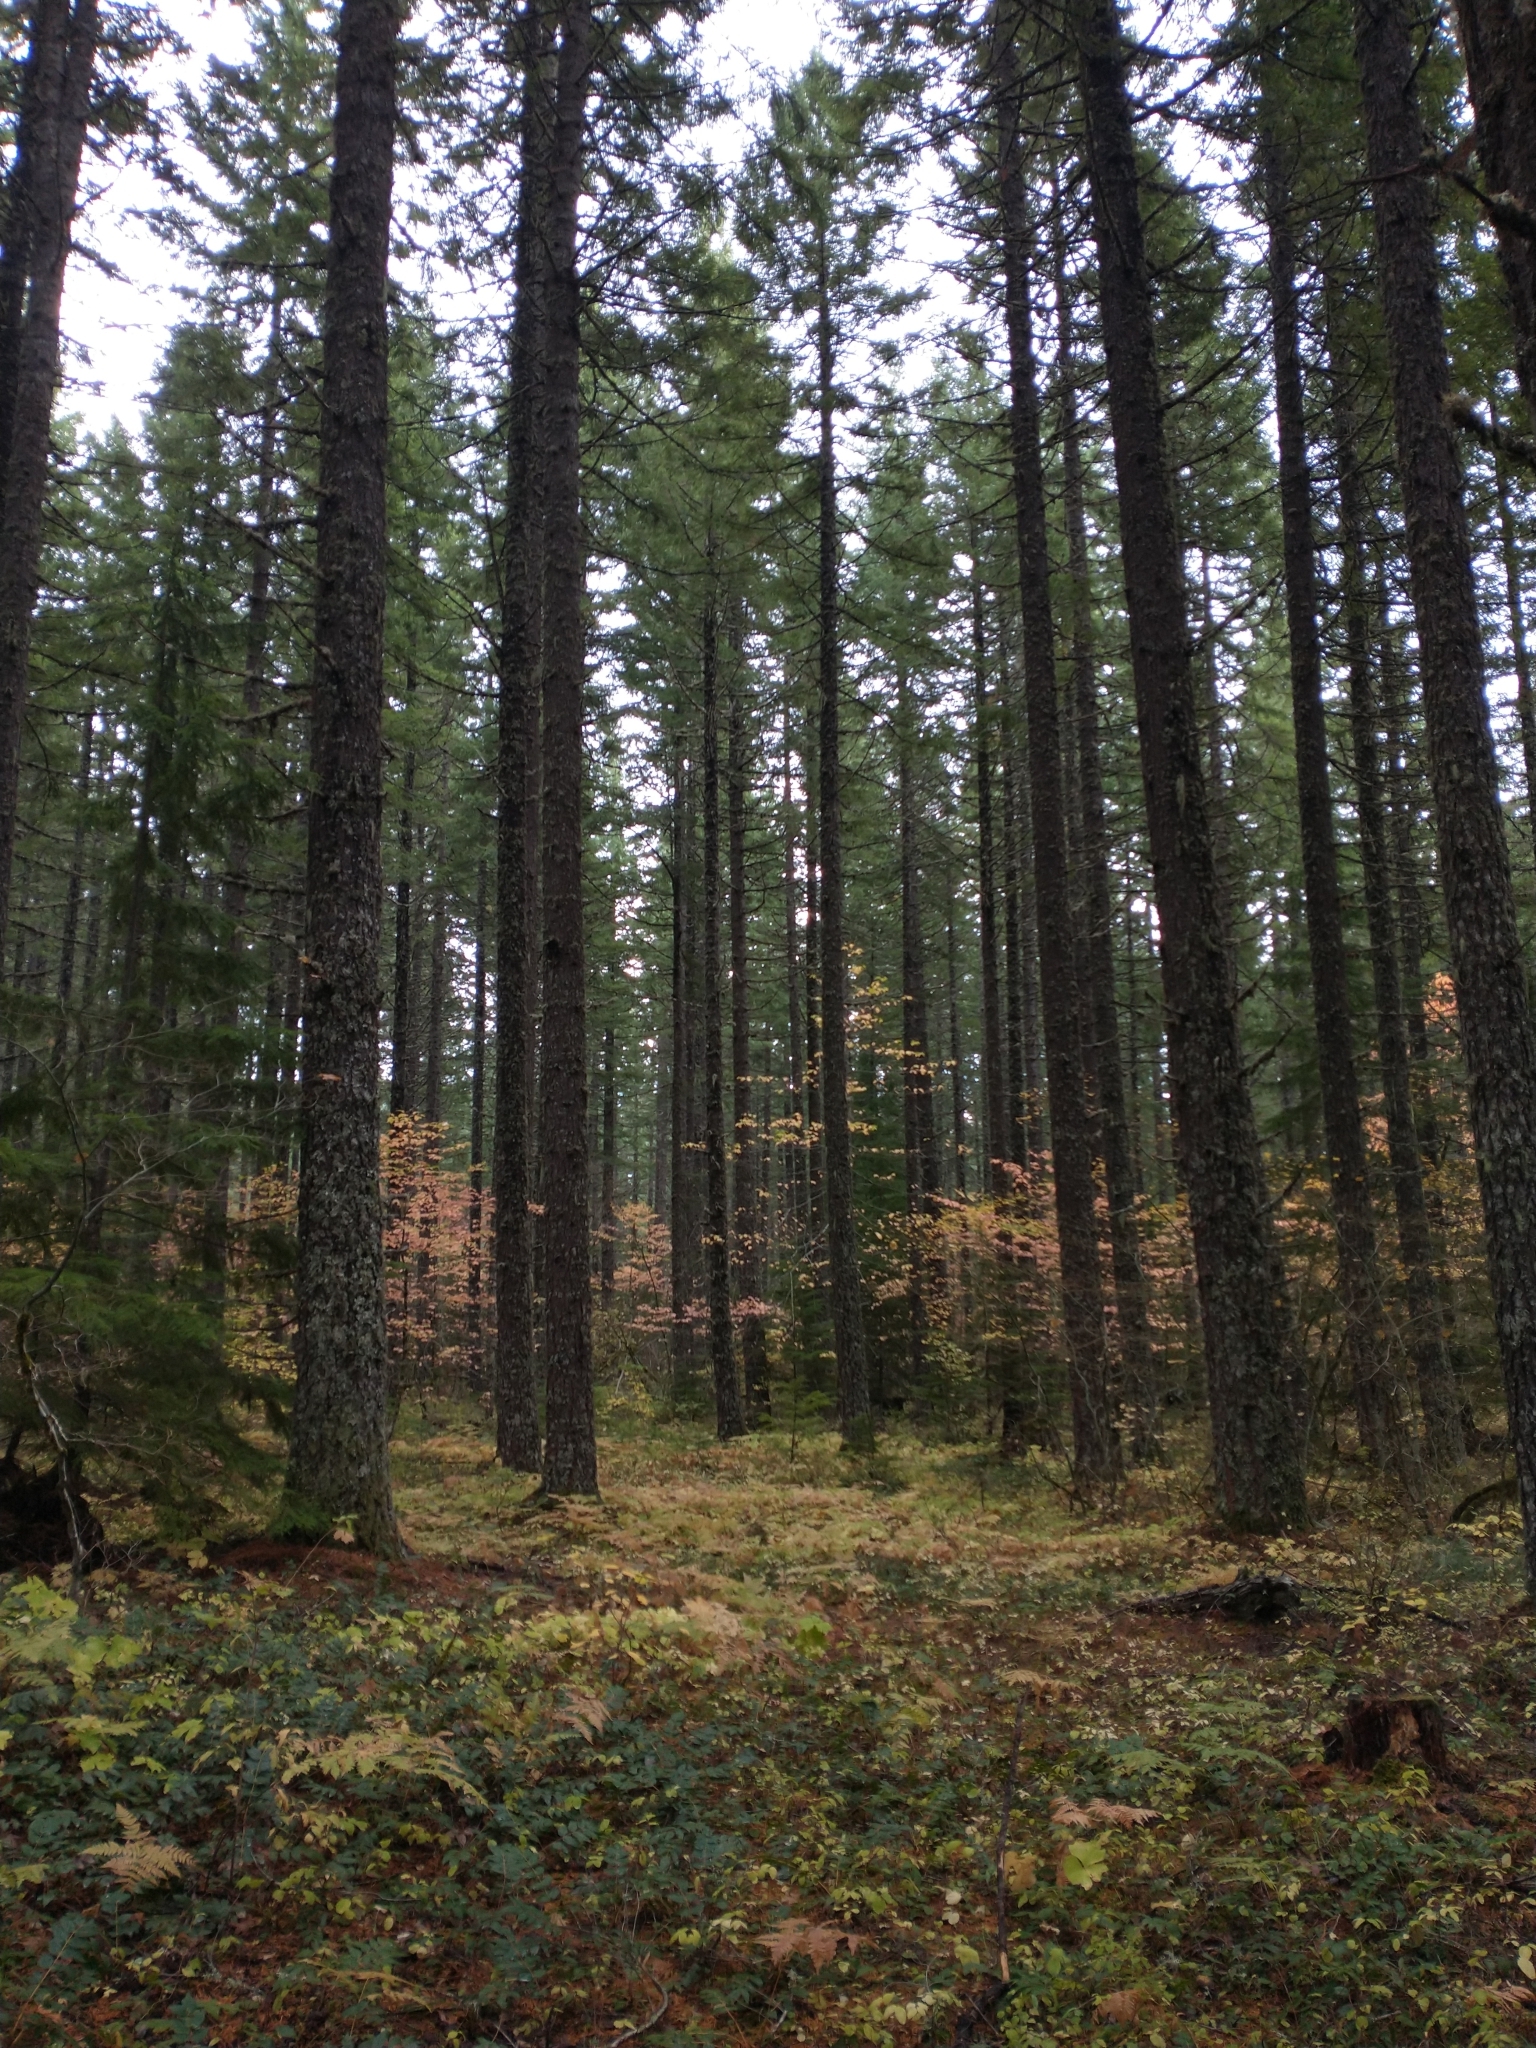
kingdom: Plantae
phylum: Tracheophyta
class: Pinopsida
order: Pinales
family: Pinaceae
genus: Pseudotsuga
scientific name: Pseudotsuga menziesii
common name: Douglas fir
